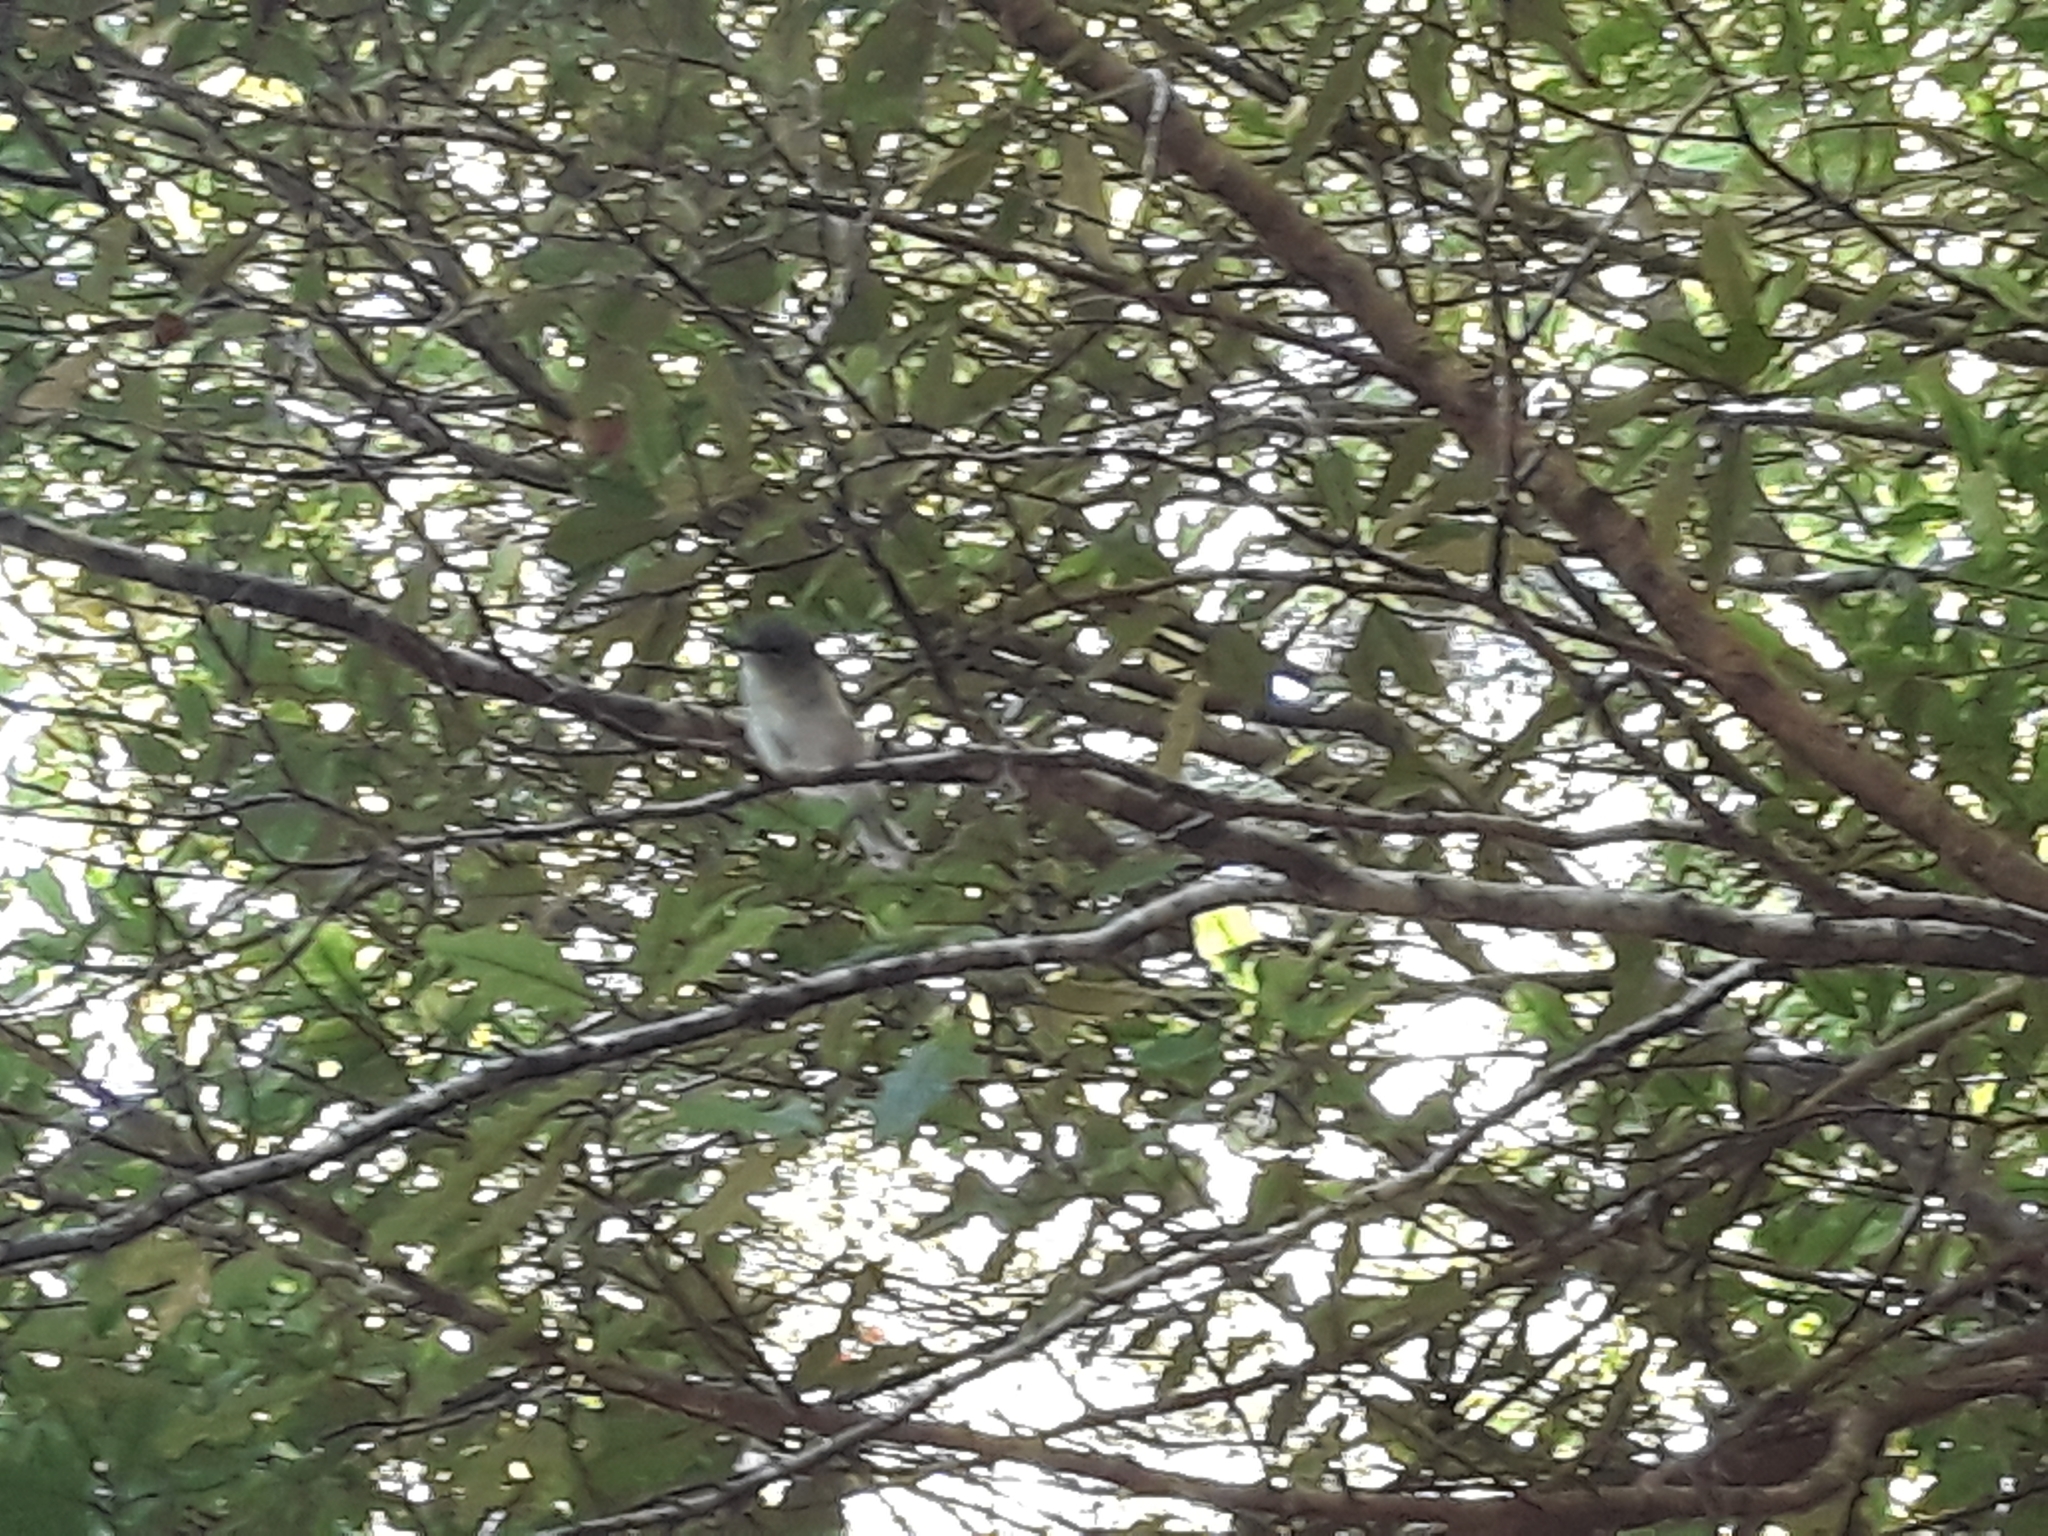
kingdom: Animalia
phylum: Chordata
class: Aves
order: Passeriformes
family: Acanthizidae
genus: Gerygone
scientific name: Gerygone igata
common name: Grey gerygone
